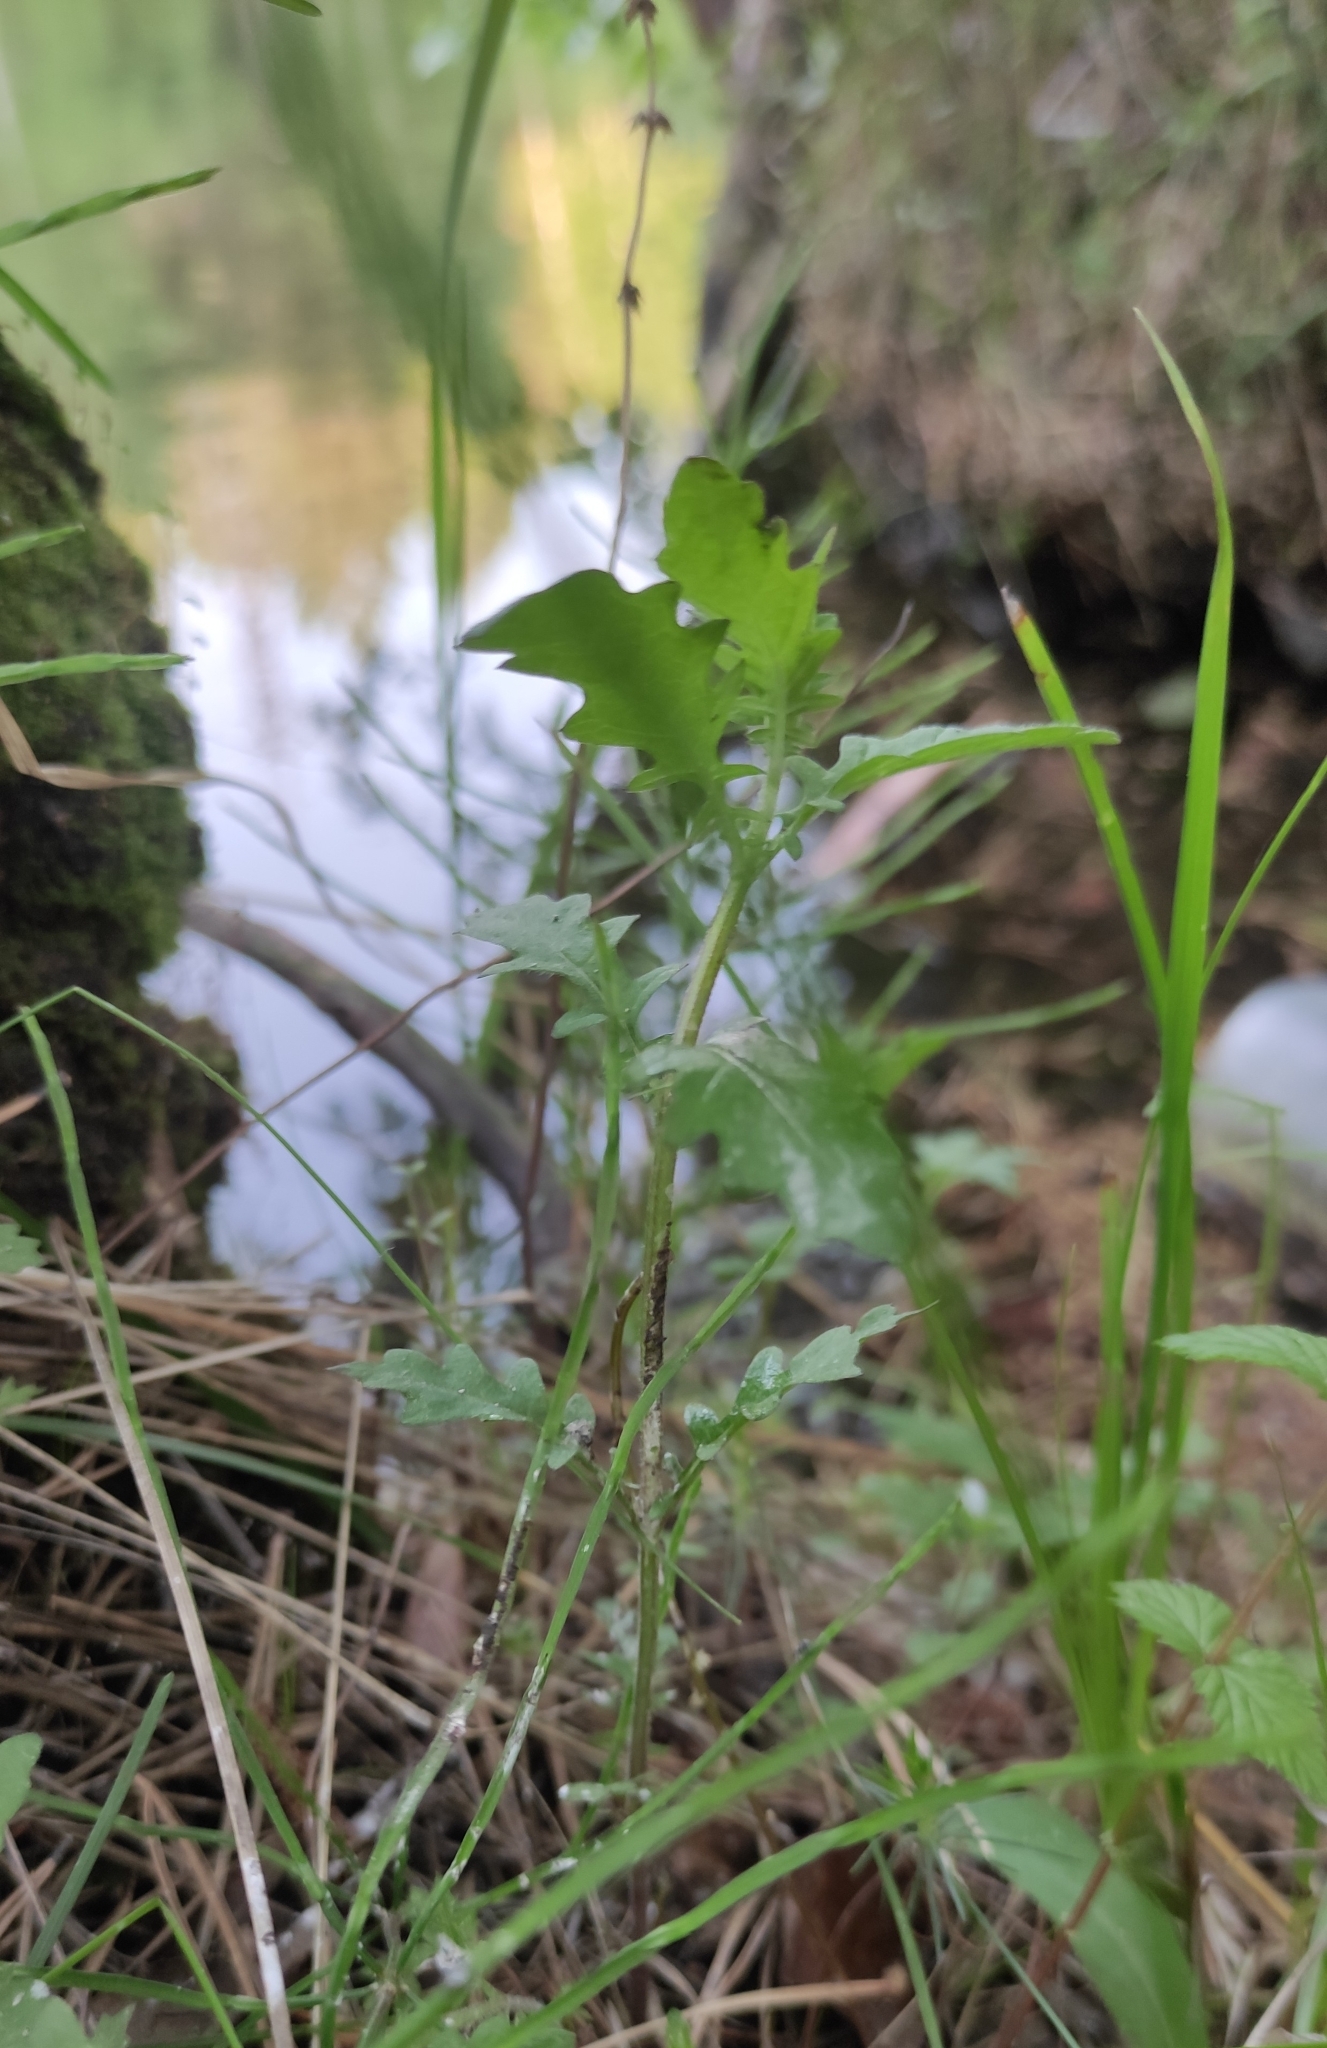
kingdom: Plantae
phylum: Tracheophyta
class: Magnoliopsida
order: Lamiales
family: Lamiaceae
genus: Lycopus
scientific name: Lycopus europaeus
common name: European bugleweed
